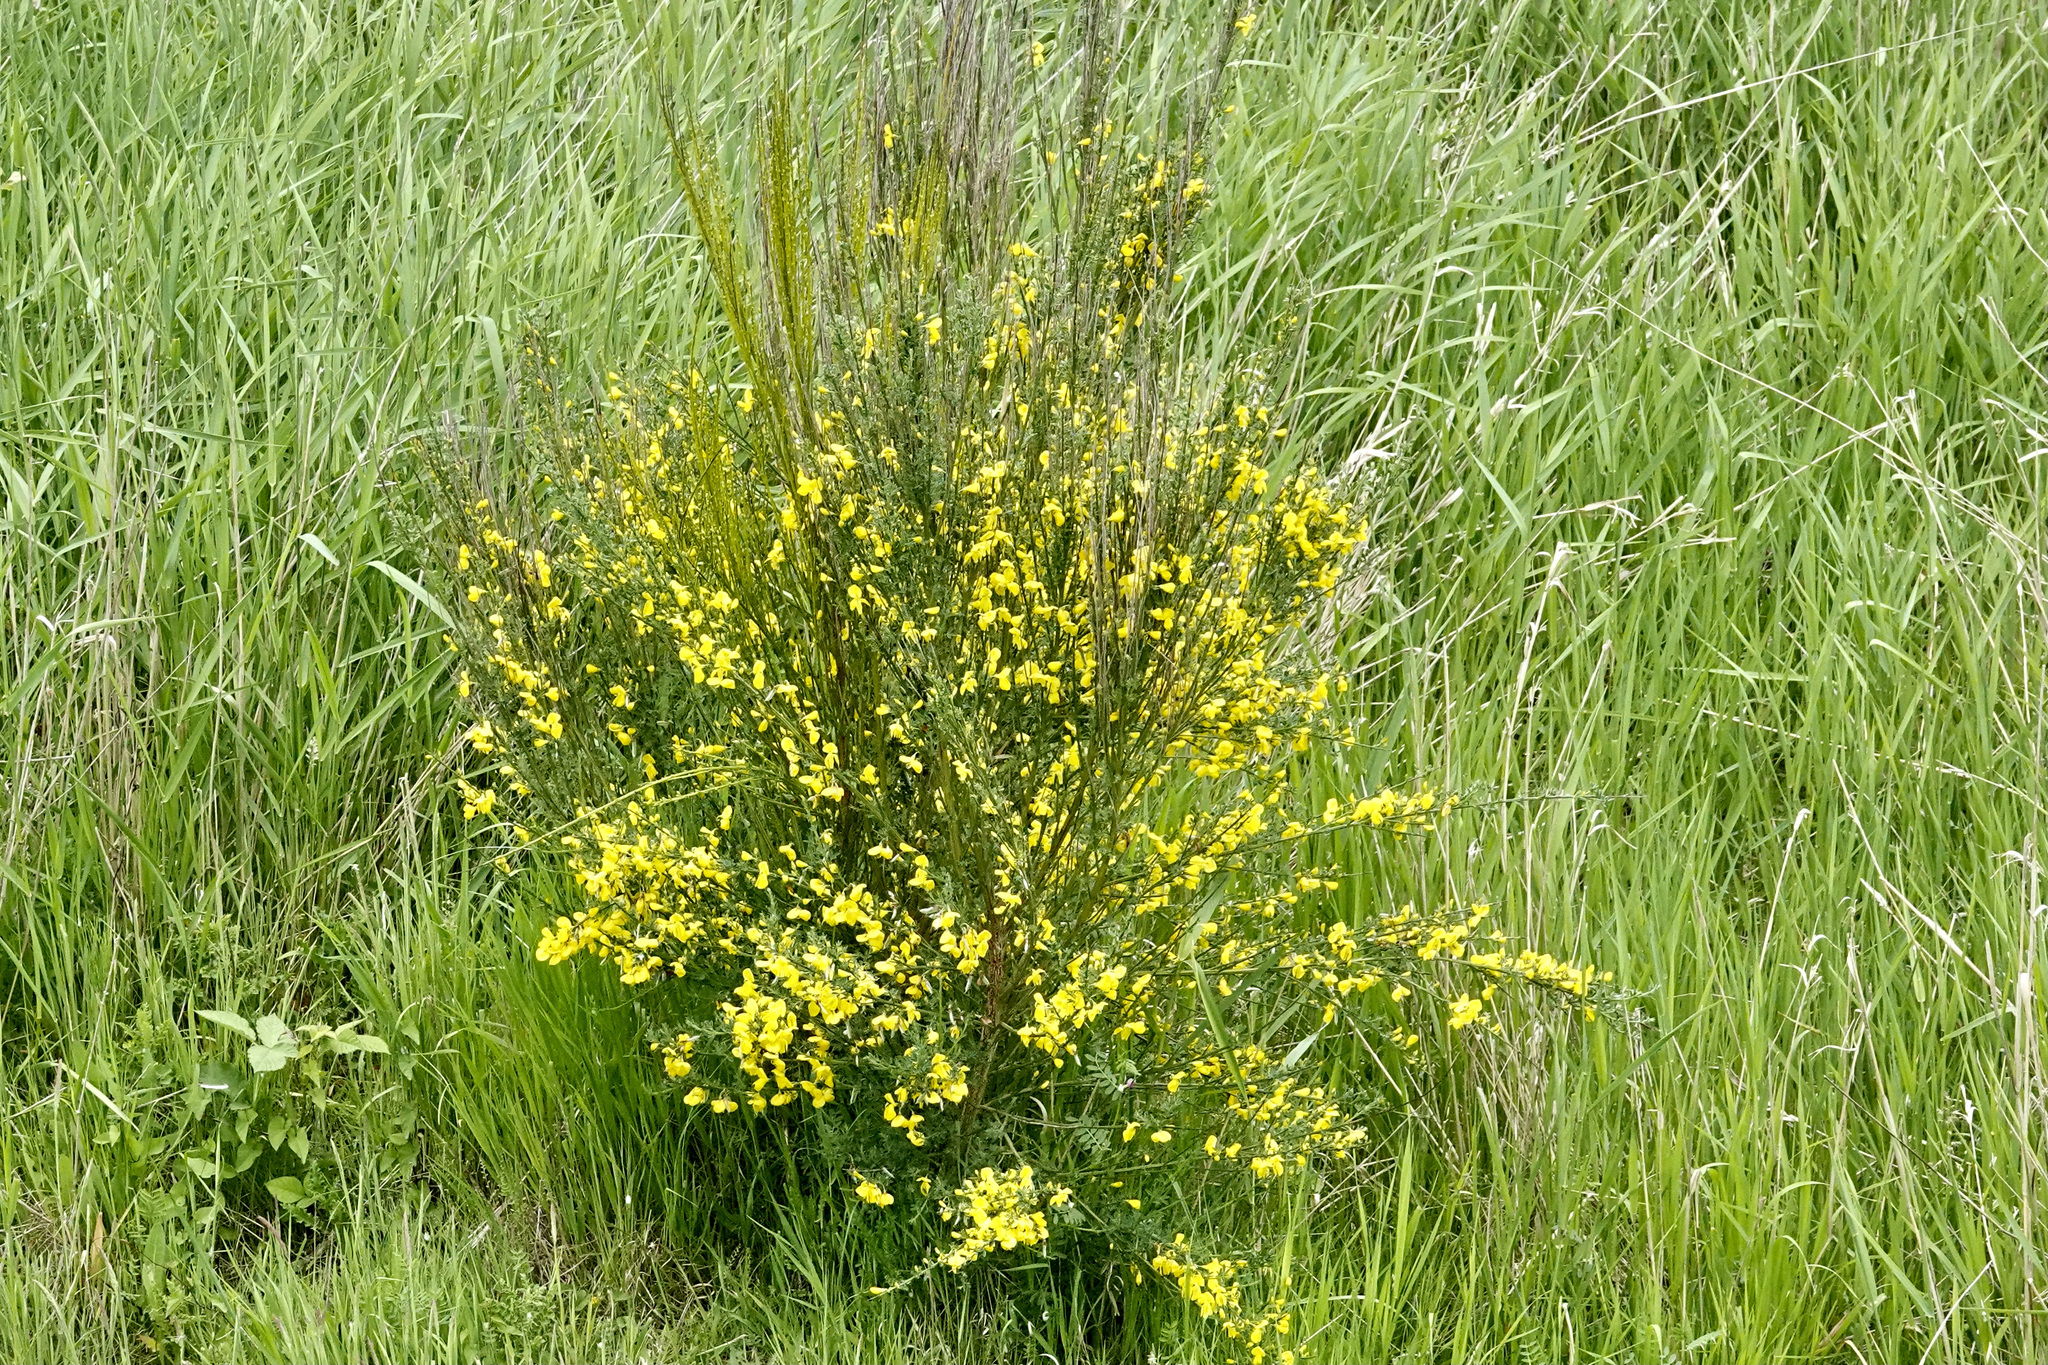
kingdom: Plantae
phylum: Tracheophyta
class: Magnoliopsida
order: Fabales
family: Fabaceae
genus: Cytisus
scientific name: Cytisus scoparius
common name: Scotch broom
